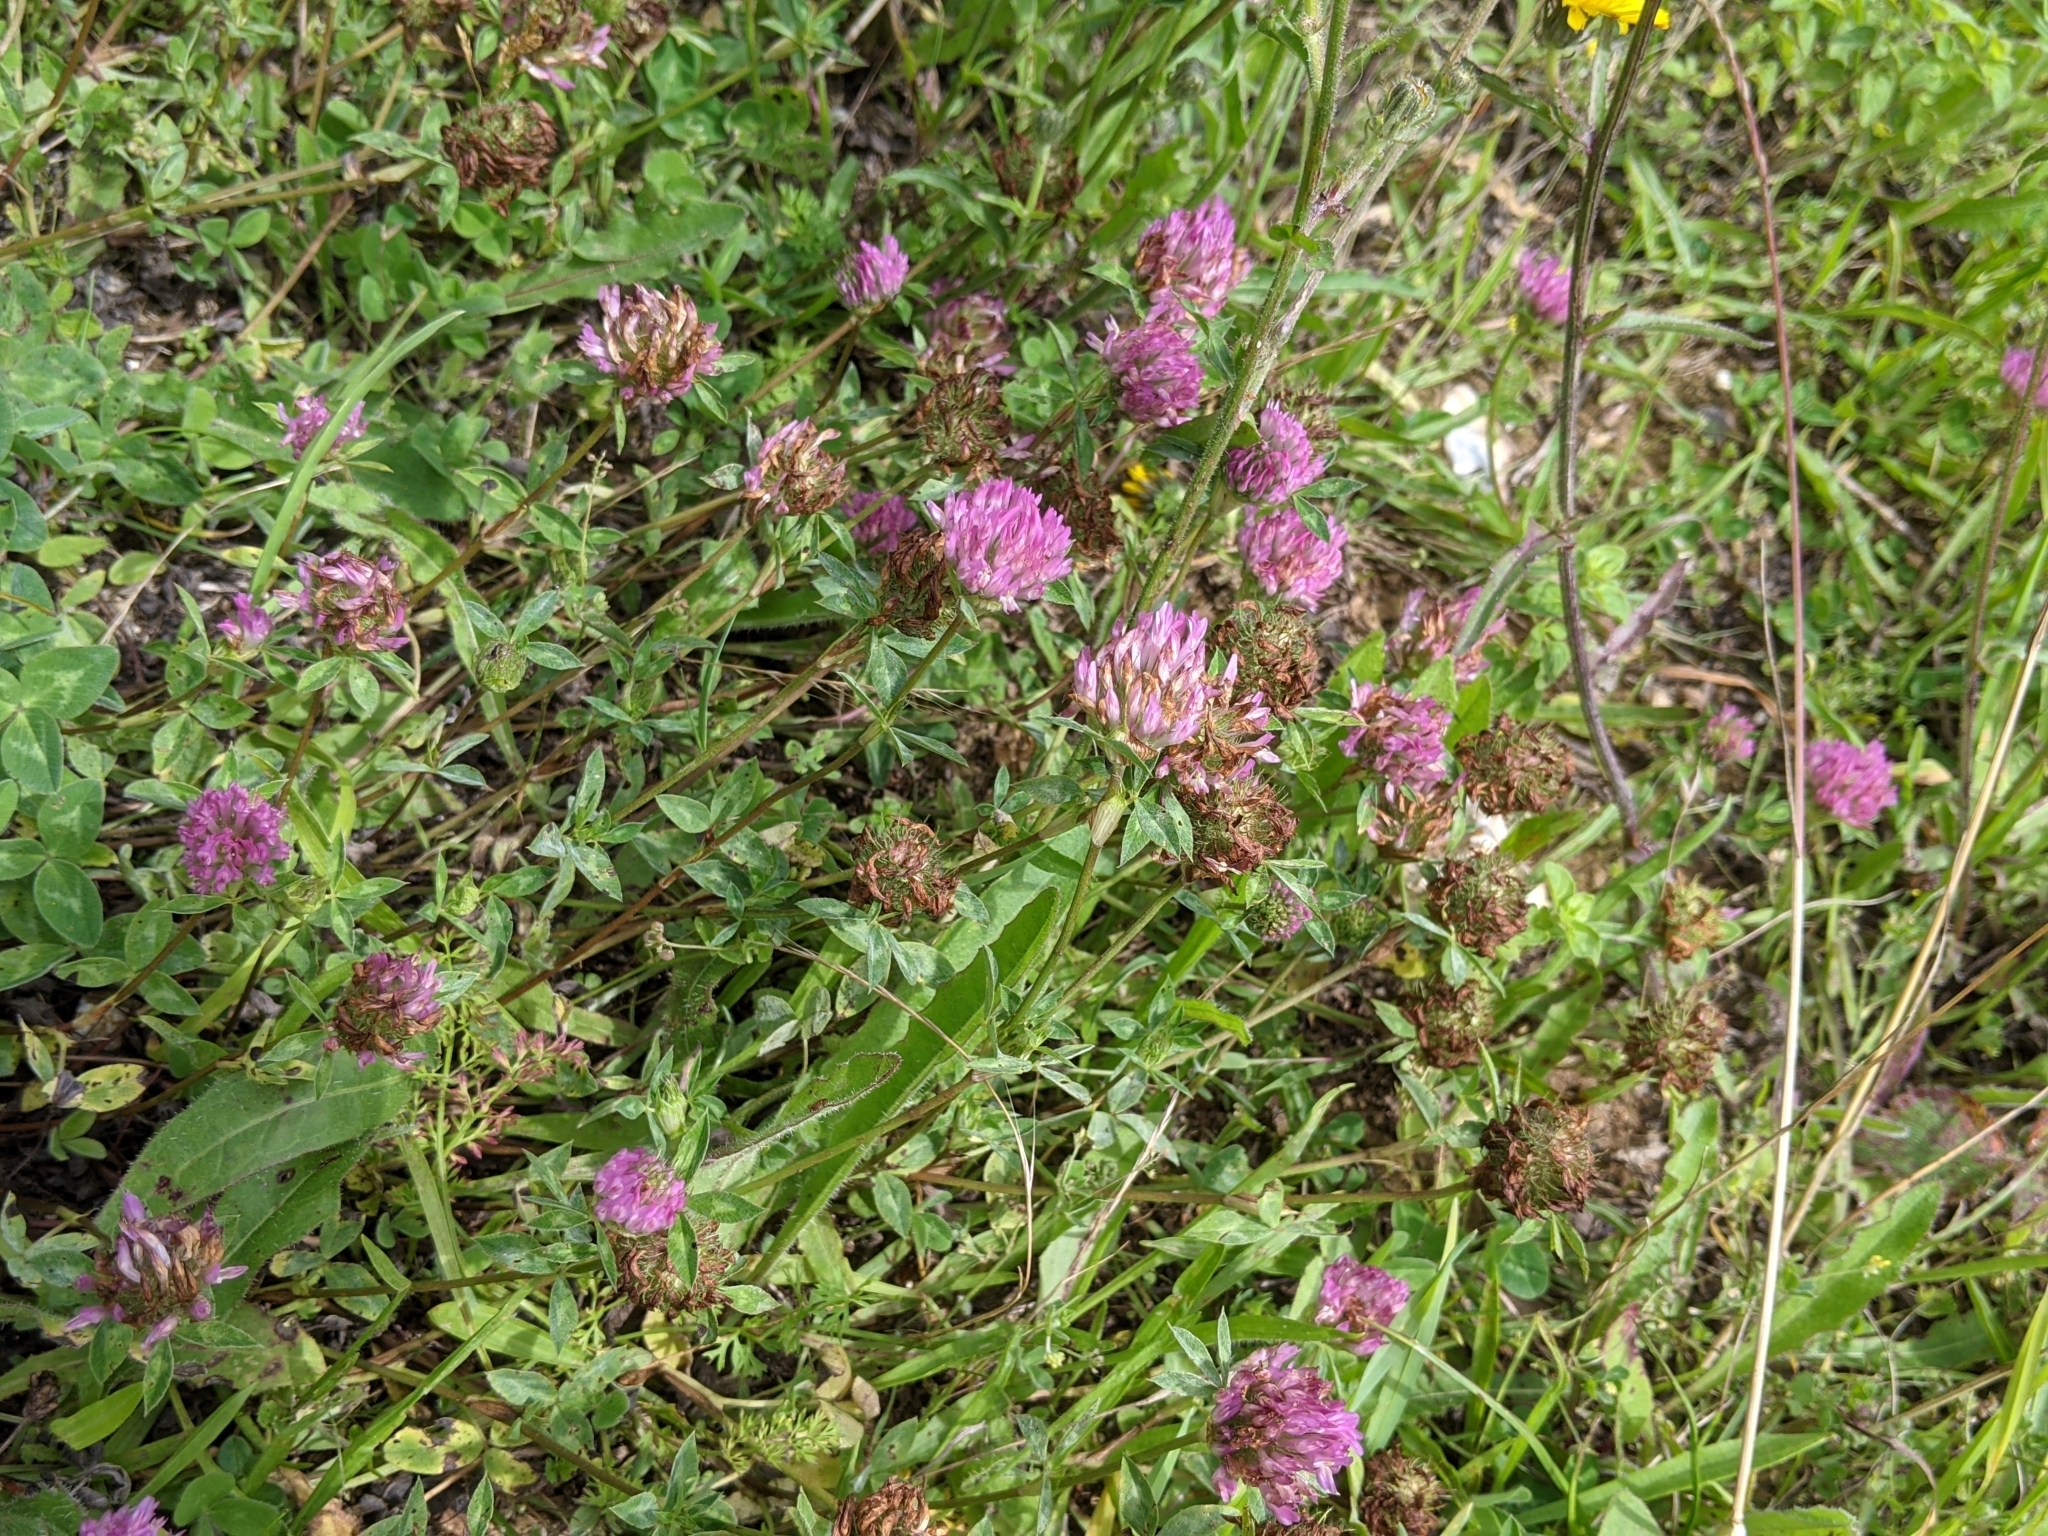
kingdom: Plantae
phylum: Tracheophyta
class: Magnoliopsida
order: Fabales
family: Fabaceae
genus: Trifolium
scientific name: Trifolium pratense
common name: Red clover
